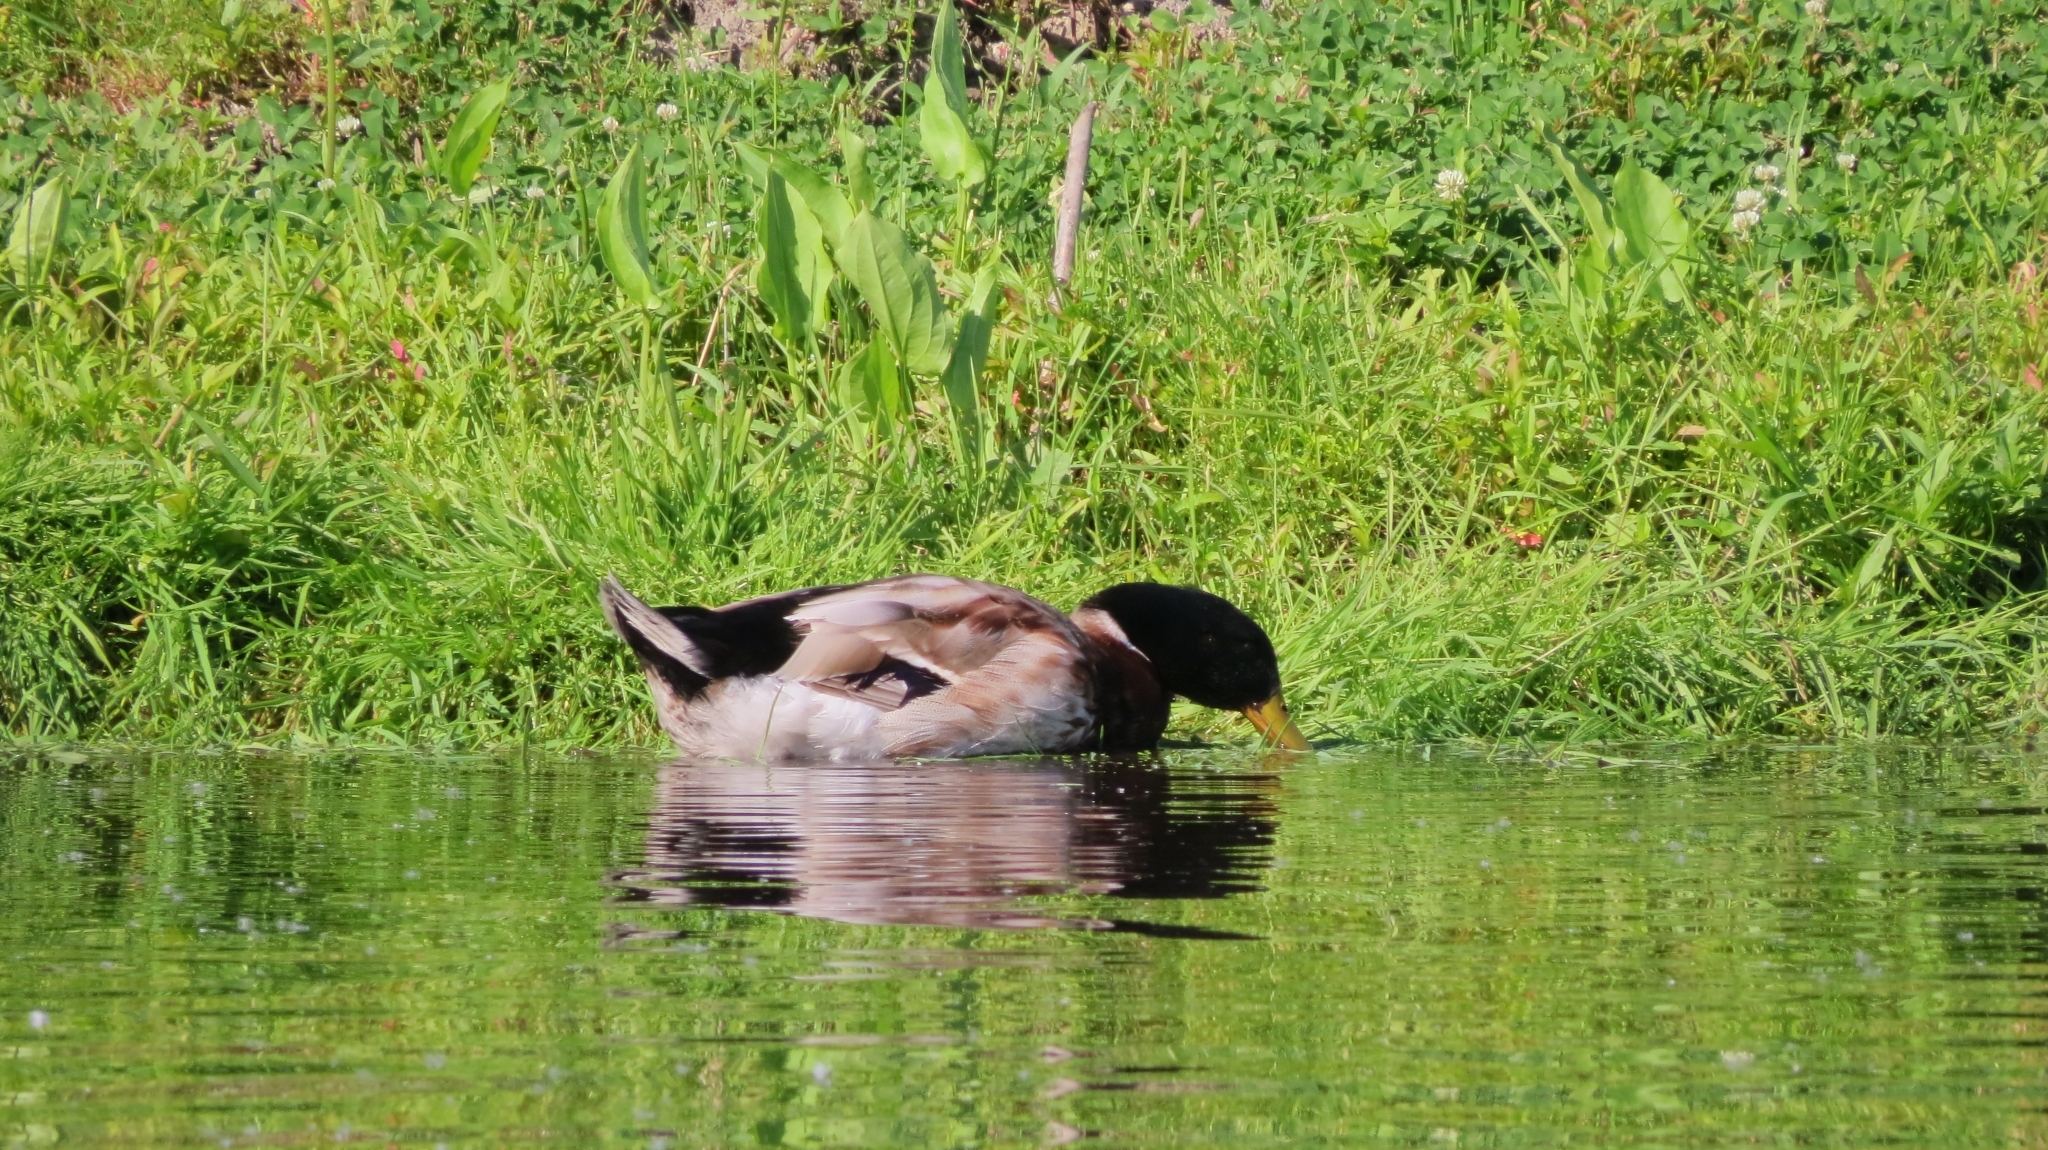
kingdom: Animalia
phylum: Chordata
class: Aves
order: Anseriformes
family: Anatidae
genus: Anas
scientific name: Anas platyrhynchos
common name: Mallard
